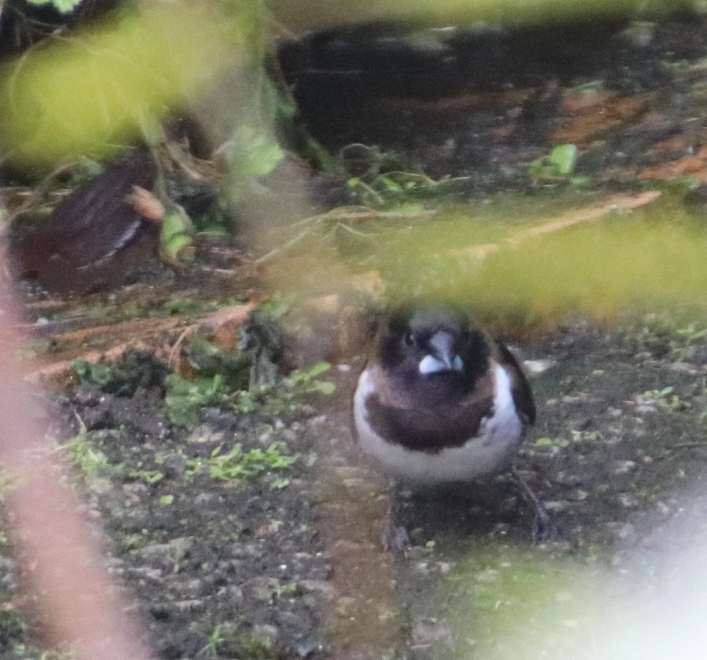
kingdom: Animalia
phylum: Chordata
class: Aves
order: Passeriformes
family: Estrildidae
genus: Lonchura
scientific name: Lonchura cucullata
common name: Bronze mannikin
